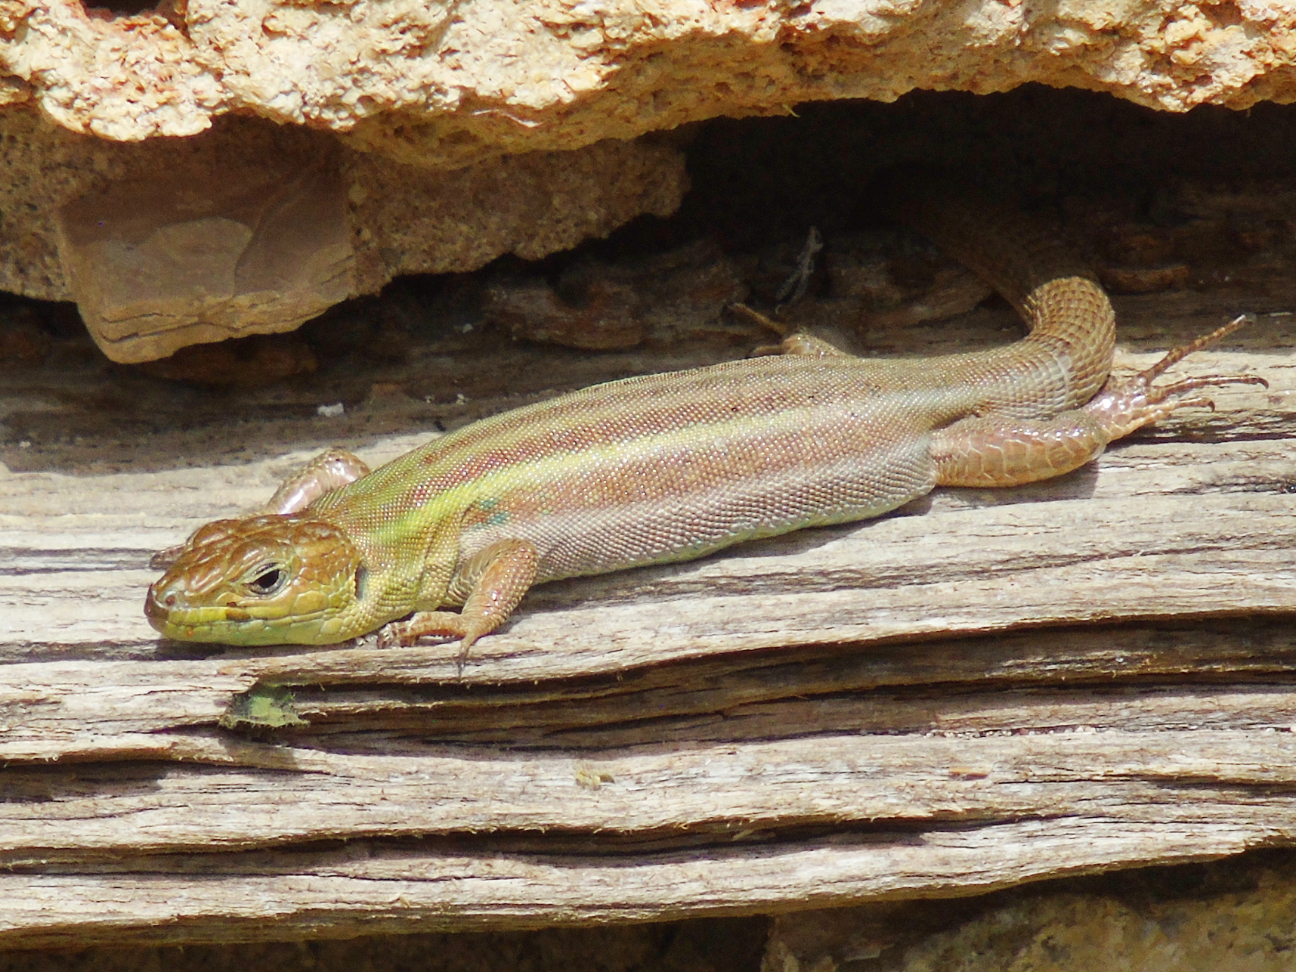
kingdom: Animalia
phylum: Chordata
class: Squamata
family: Lacertidae
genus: Podarcis
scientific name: Podarcis peloponnesiacus
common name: Peloponnese wall lizard
